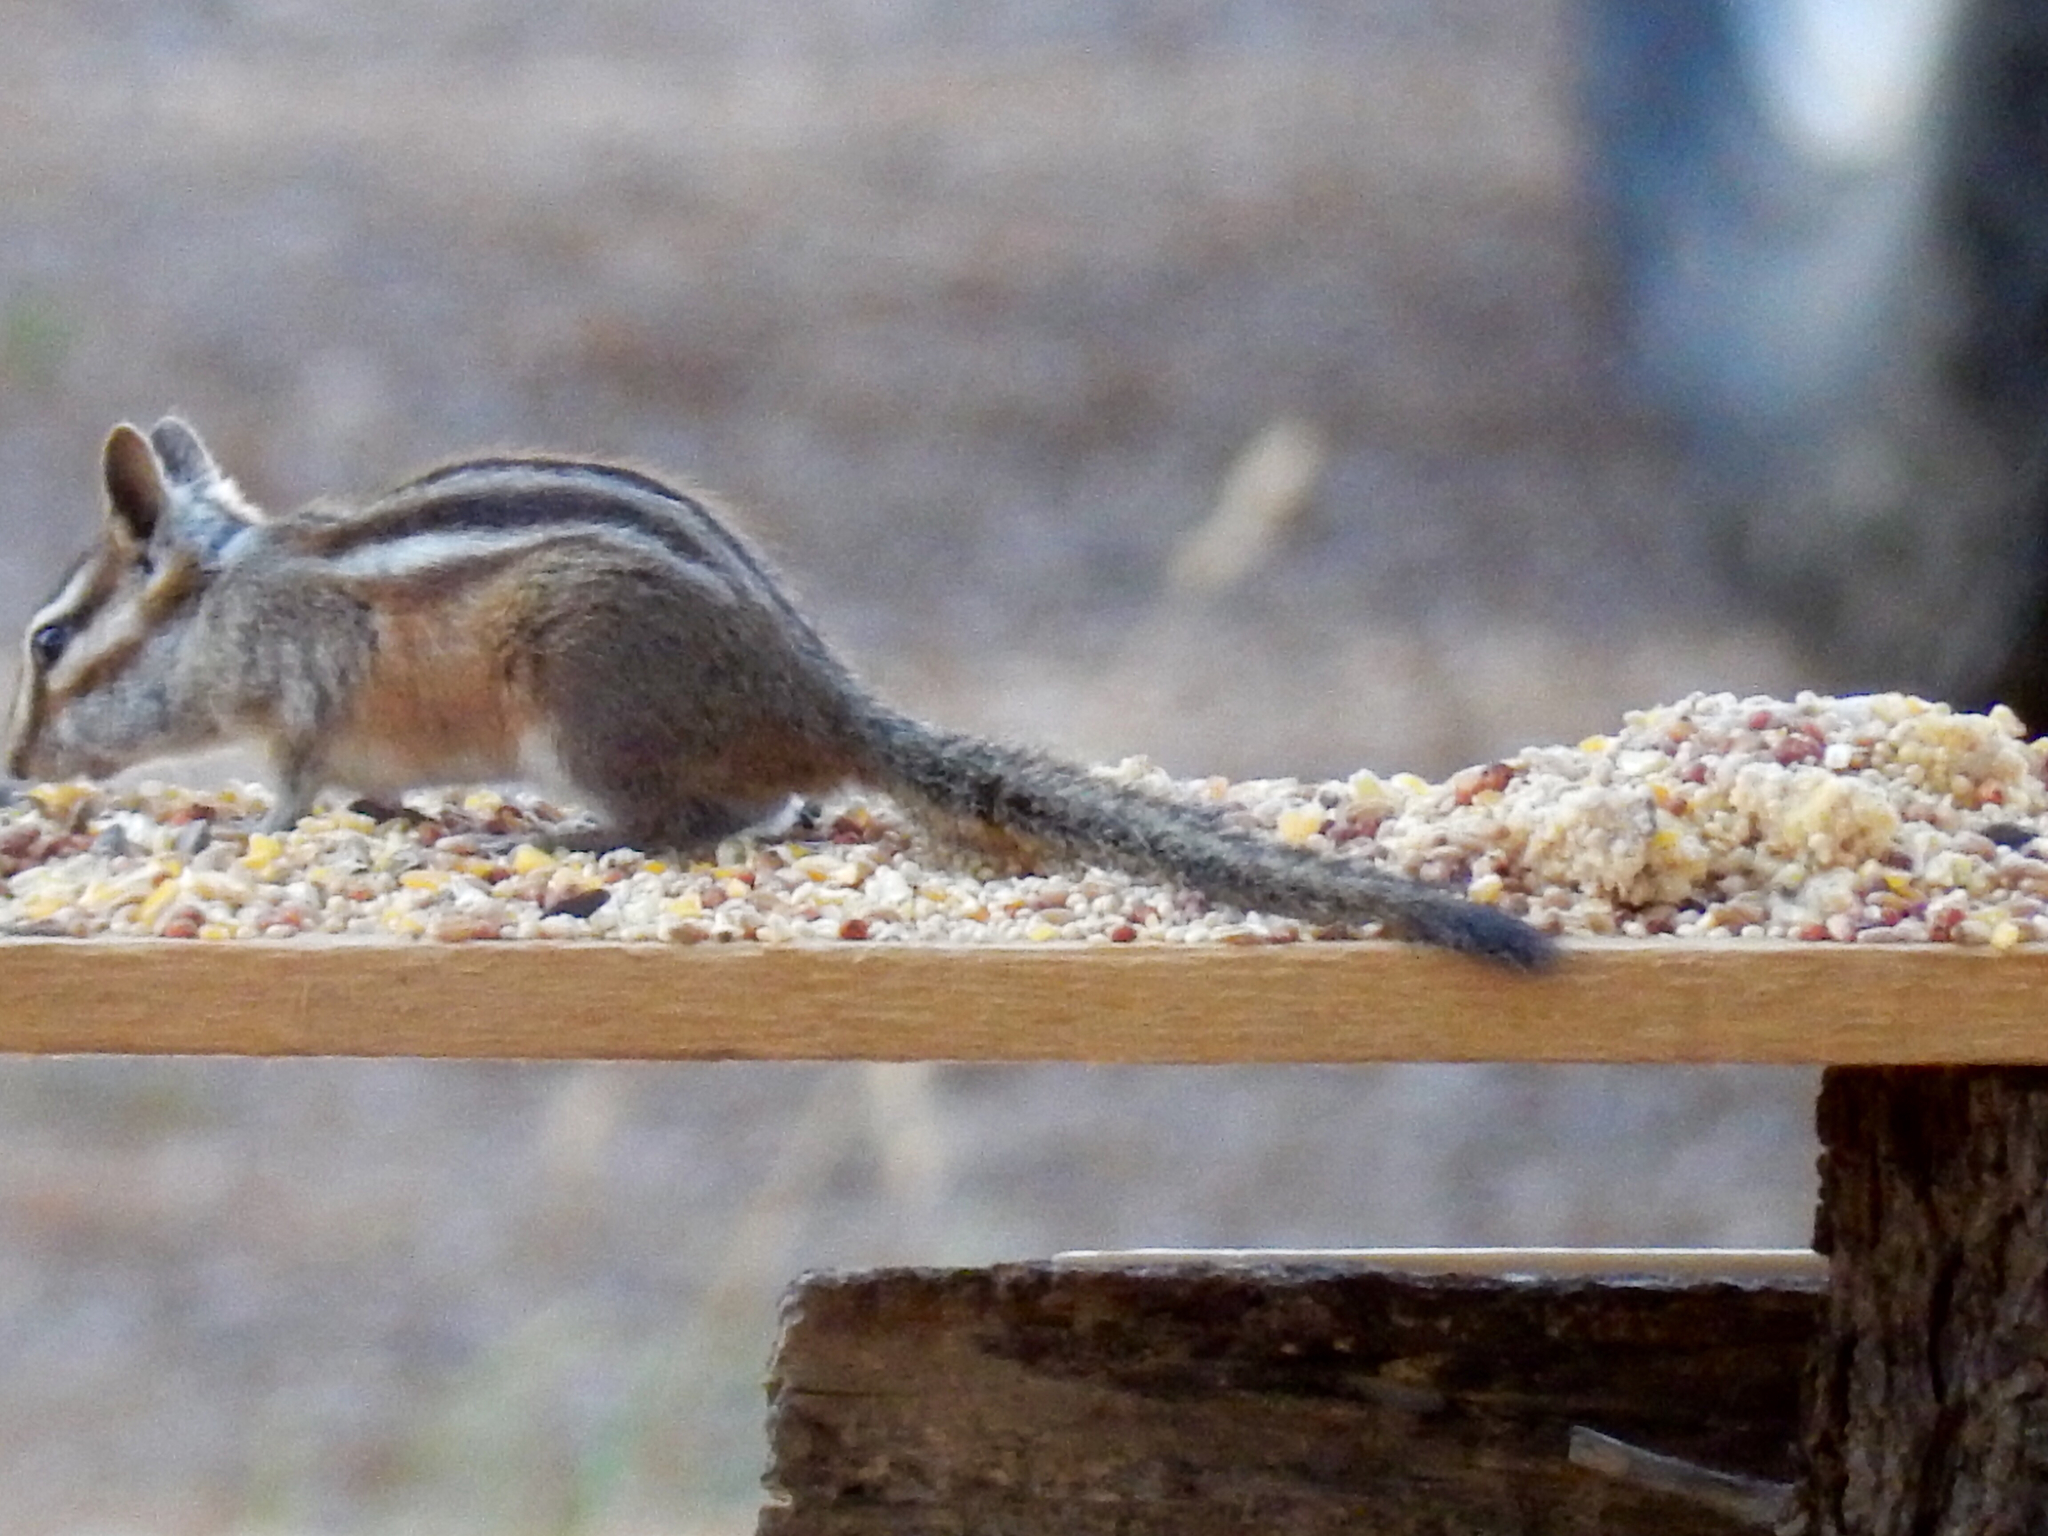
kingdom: Animalia
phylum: Chordata
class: Mammalia
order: Rodentia
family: Sciuridae
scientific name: Sciuridae
